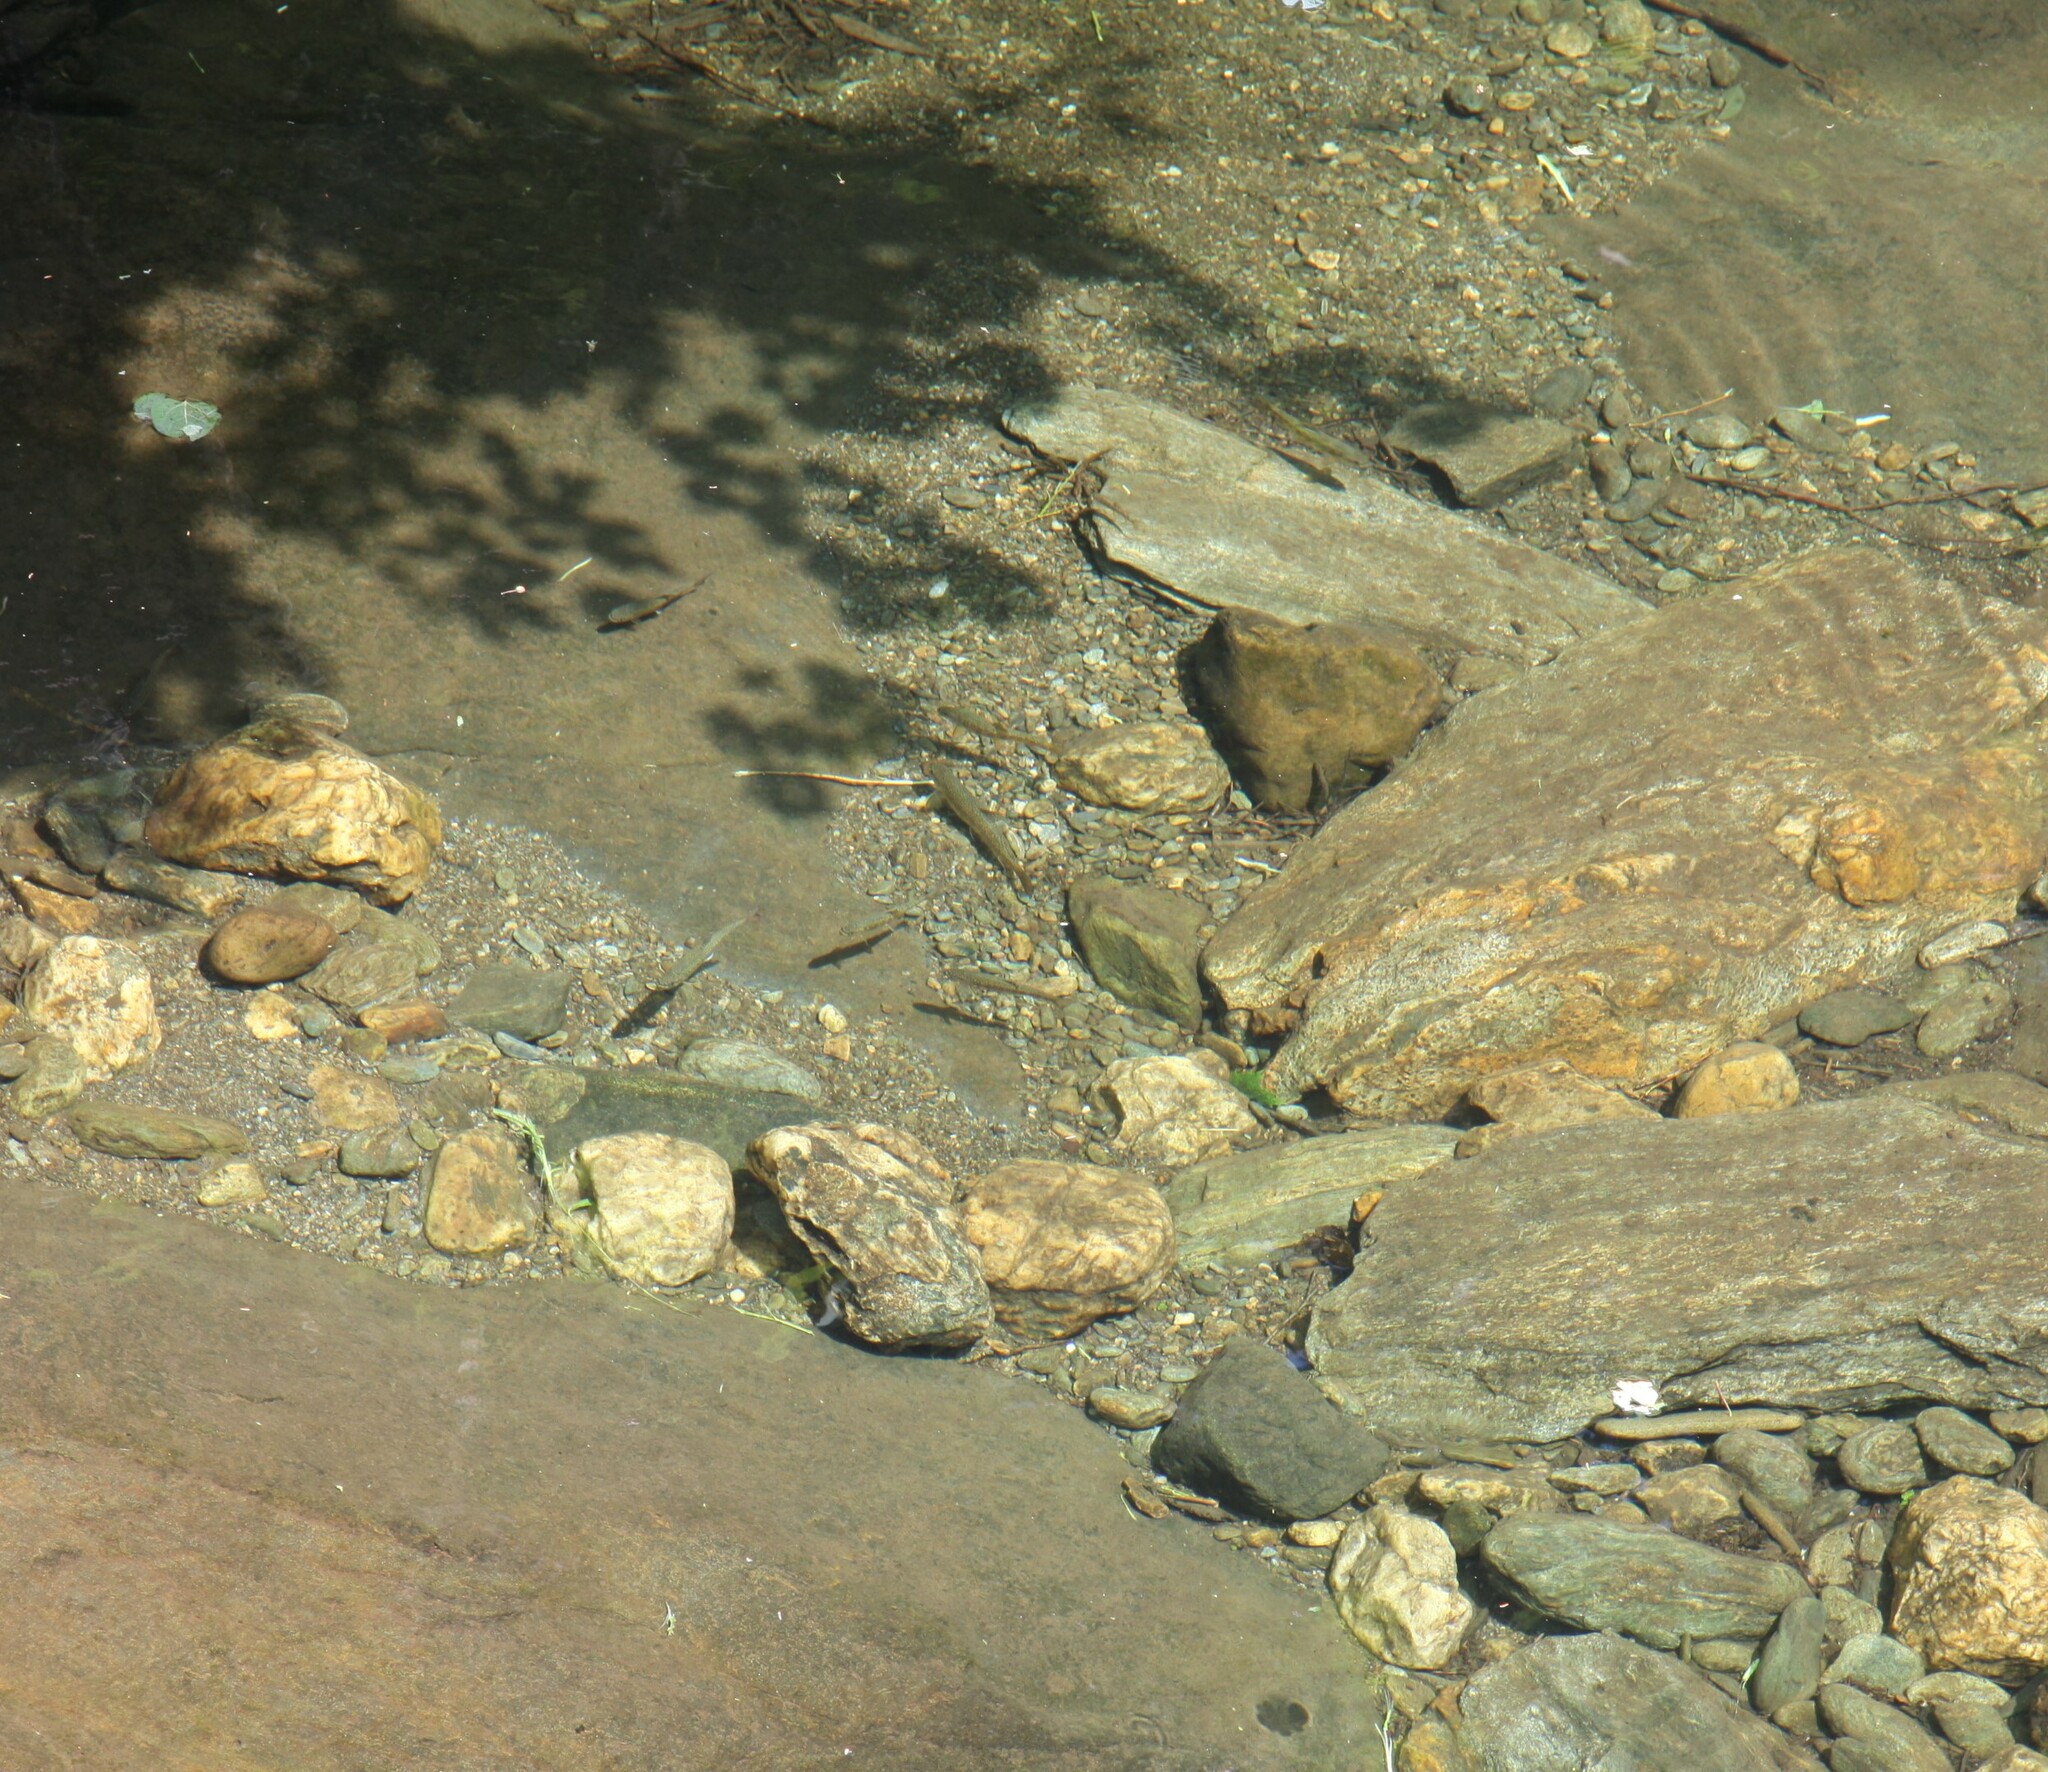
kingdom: Animalia
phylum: Chordata
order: Salmoniformes
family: Salmonidae
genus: Salvelinus
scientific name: Salvelinus fontinalis
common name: Brook trout
